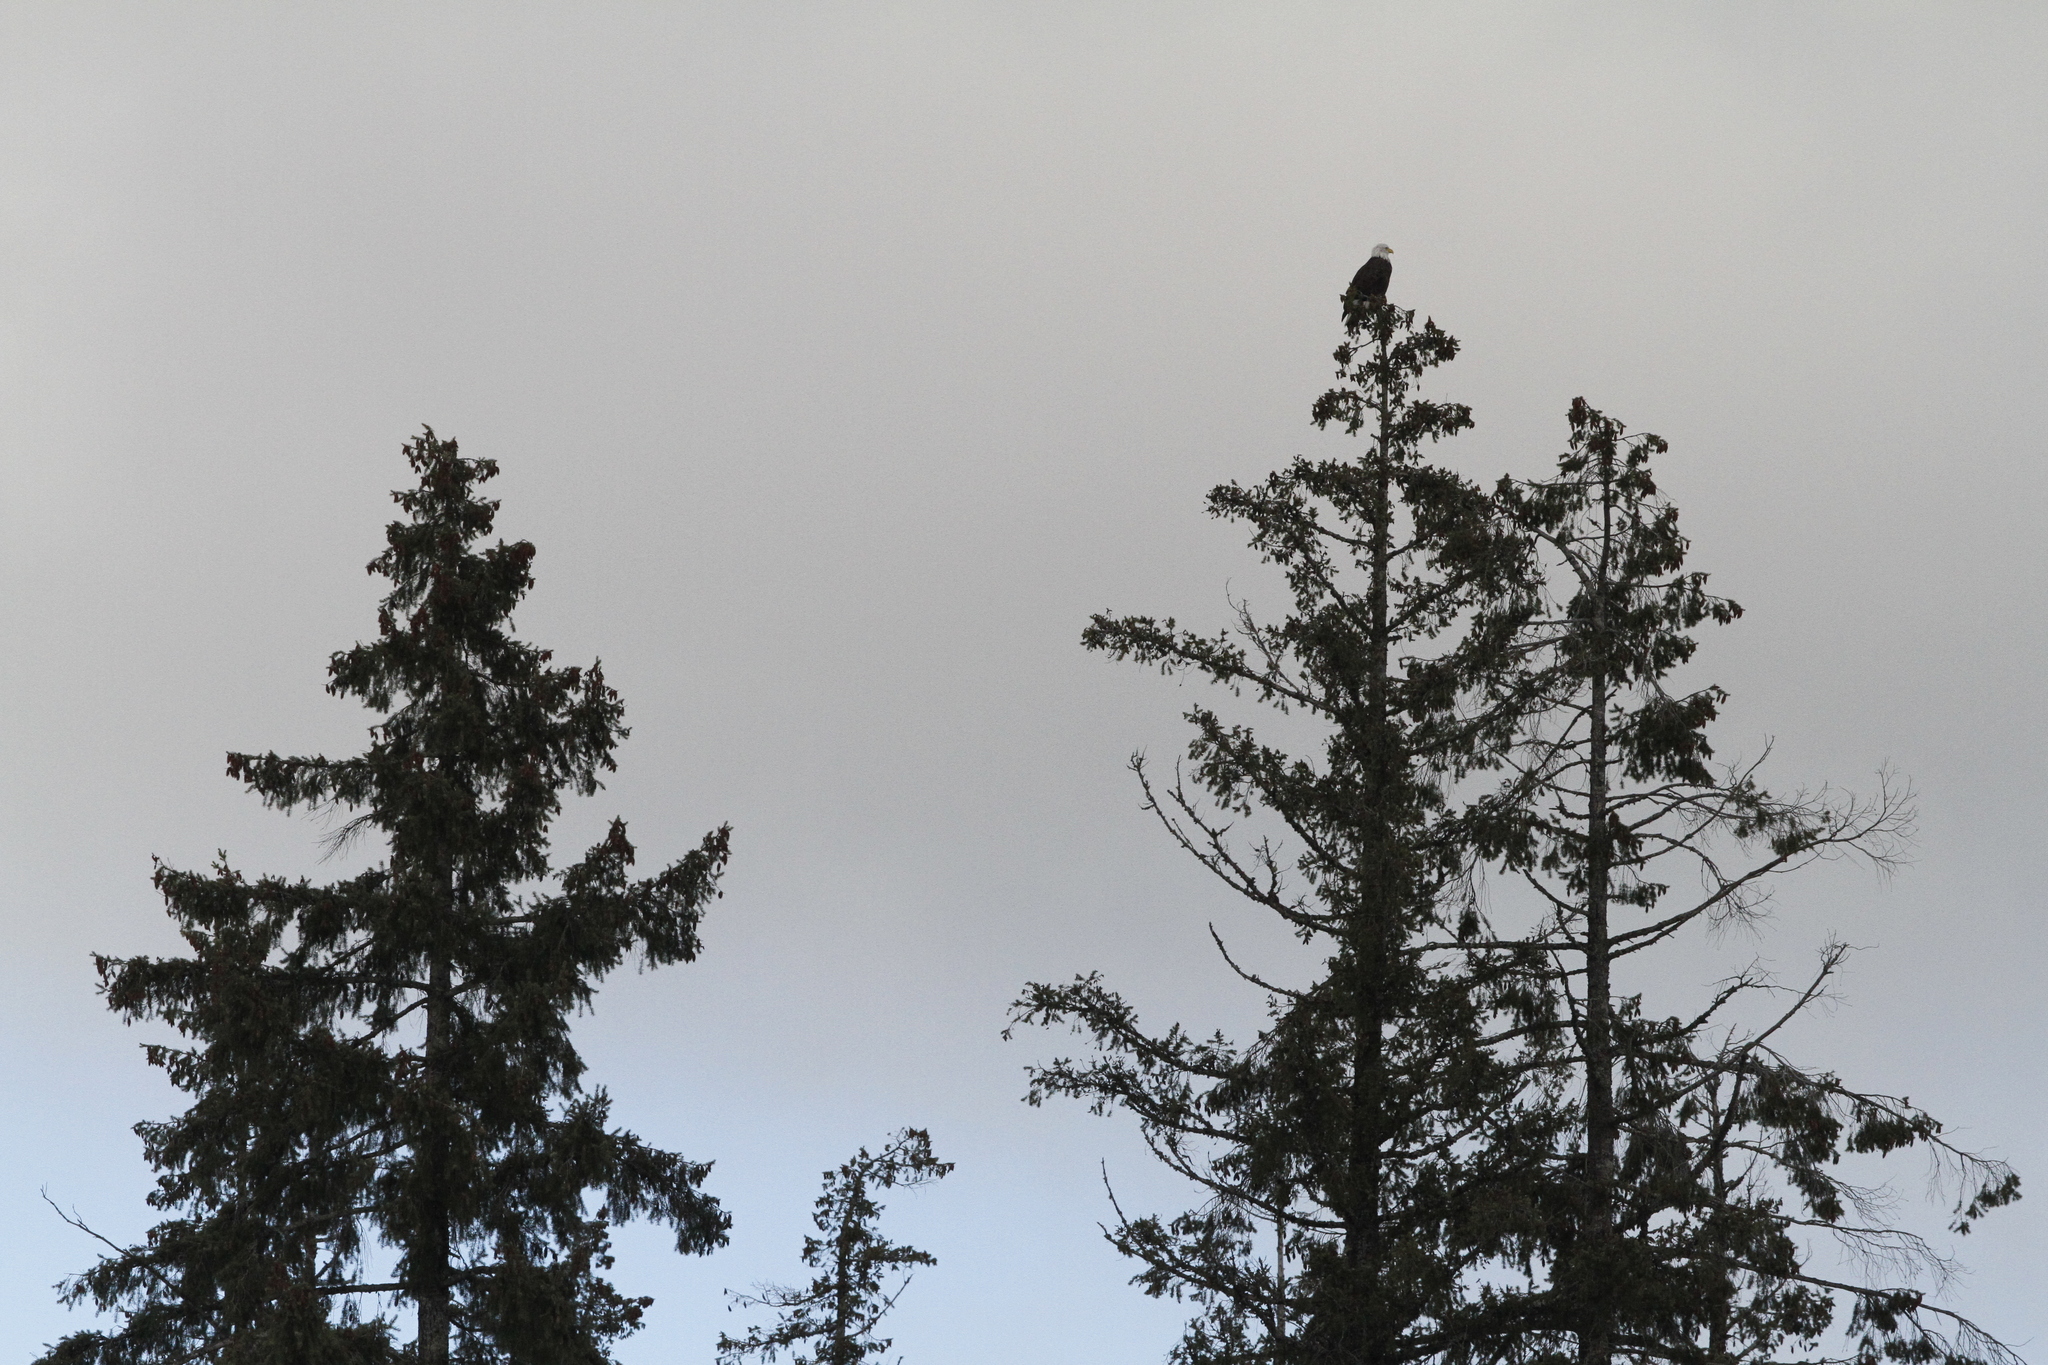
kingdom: Animalia
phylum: Chordata
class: Aves
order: Accipitriformes
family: Accipitridae
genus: Haliaeetus
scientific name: Haliaeetus leucocephalus
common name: Bald eagle
